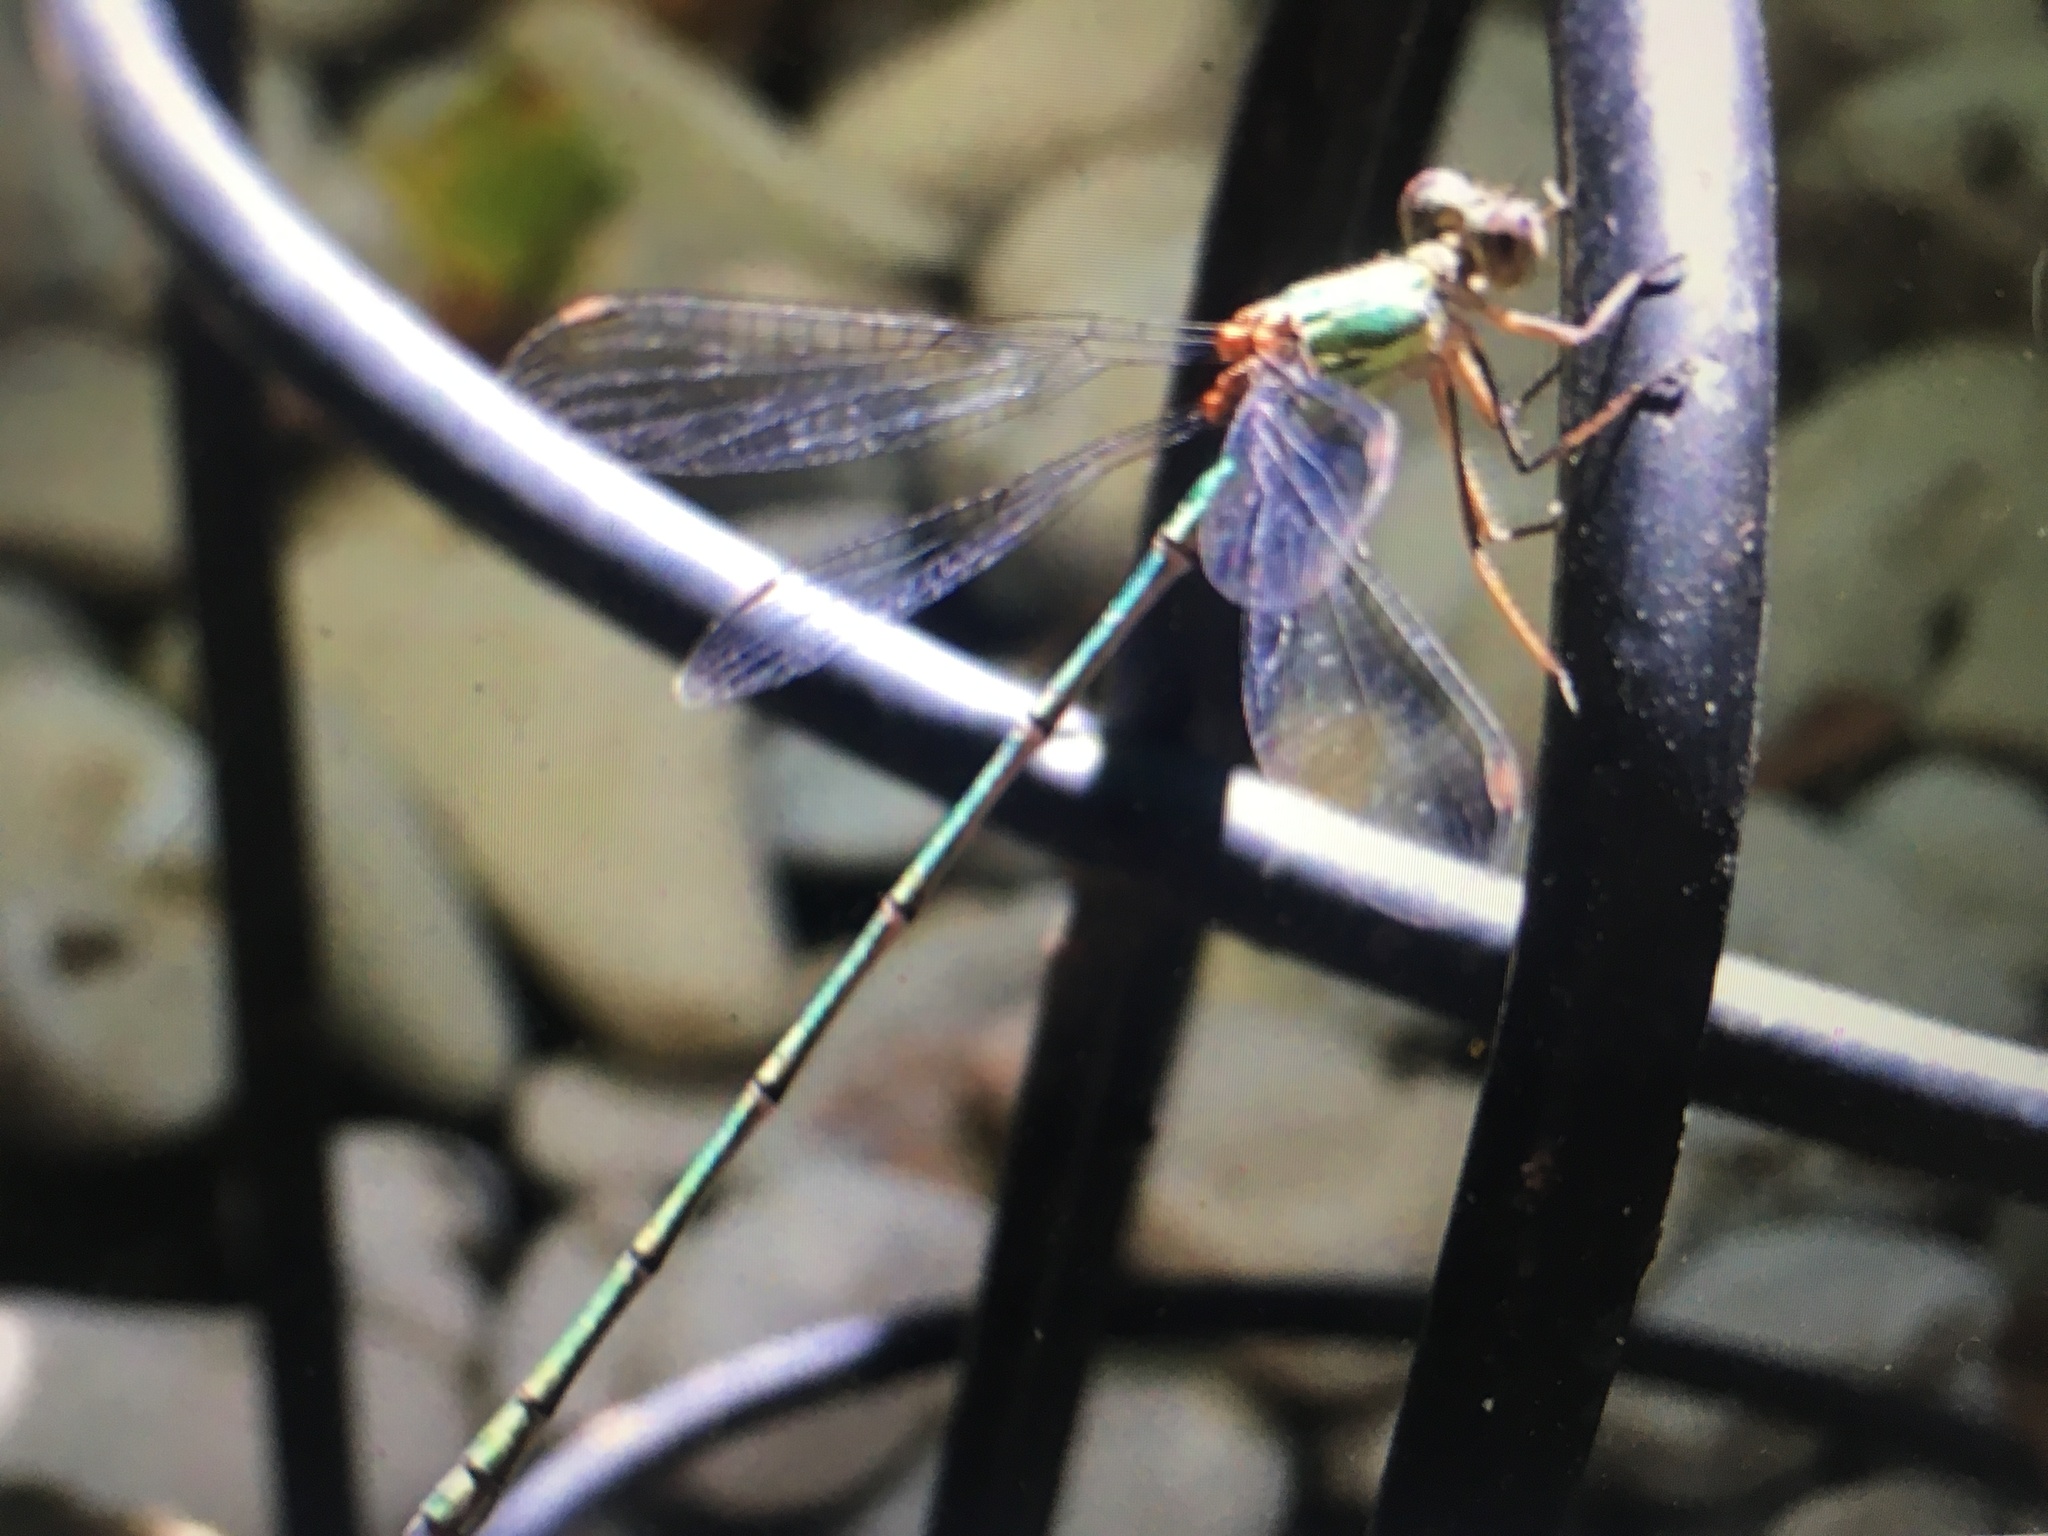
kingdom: Animalia
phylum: Arthropoda
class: Insecta
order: Odonata
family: Lestidae
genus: Chalcolestes
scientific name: Chalcolestes parvidens
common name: Eastern willow spreadwing
